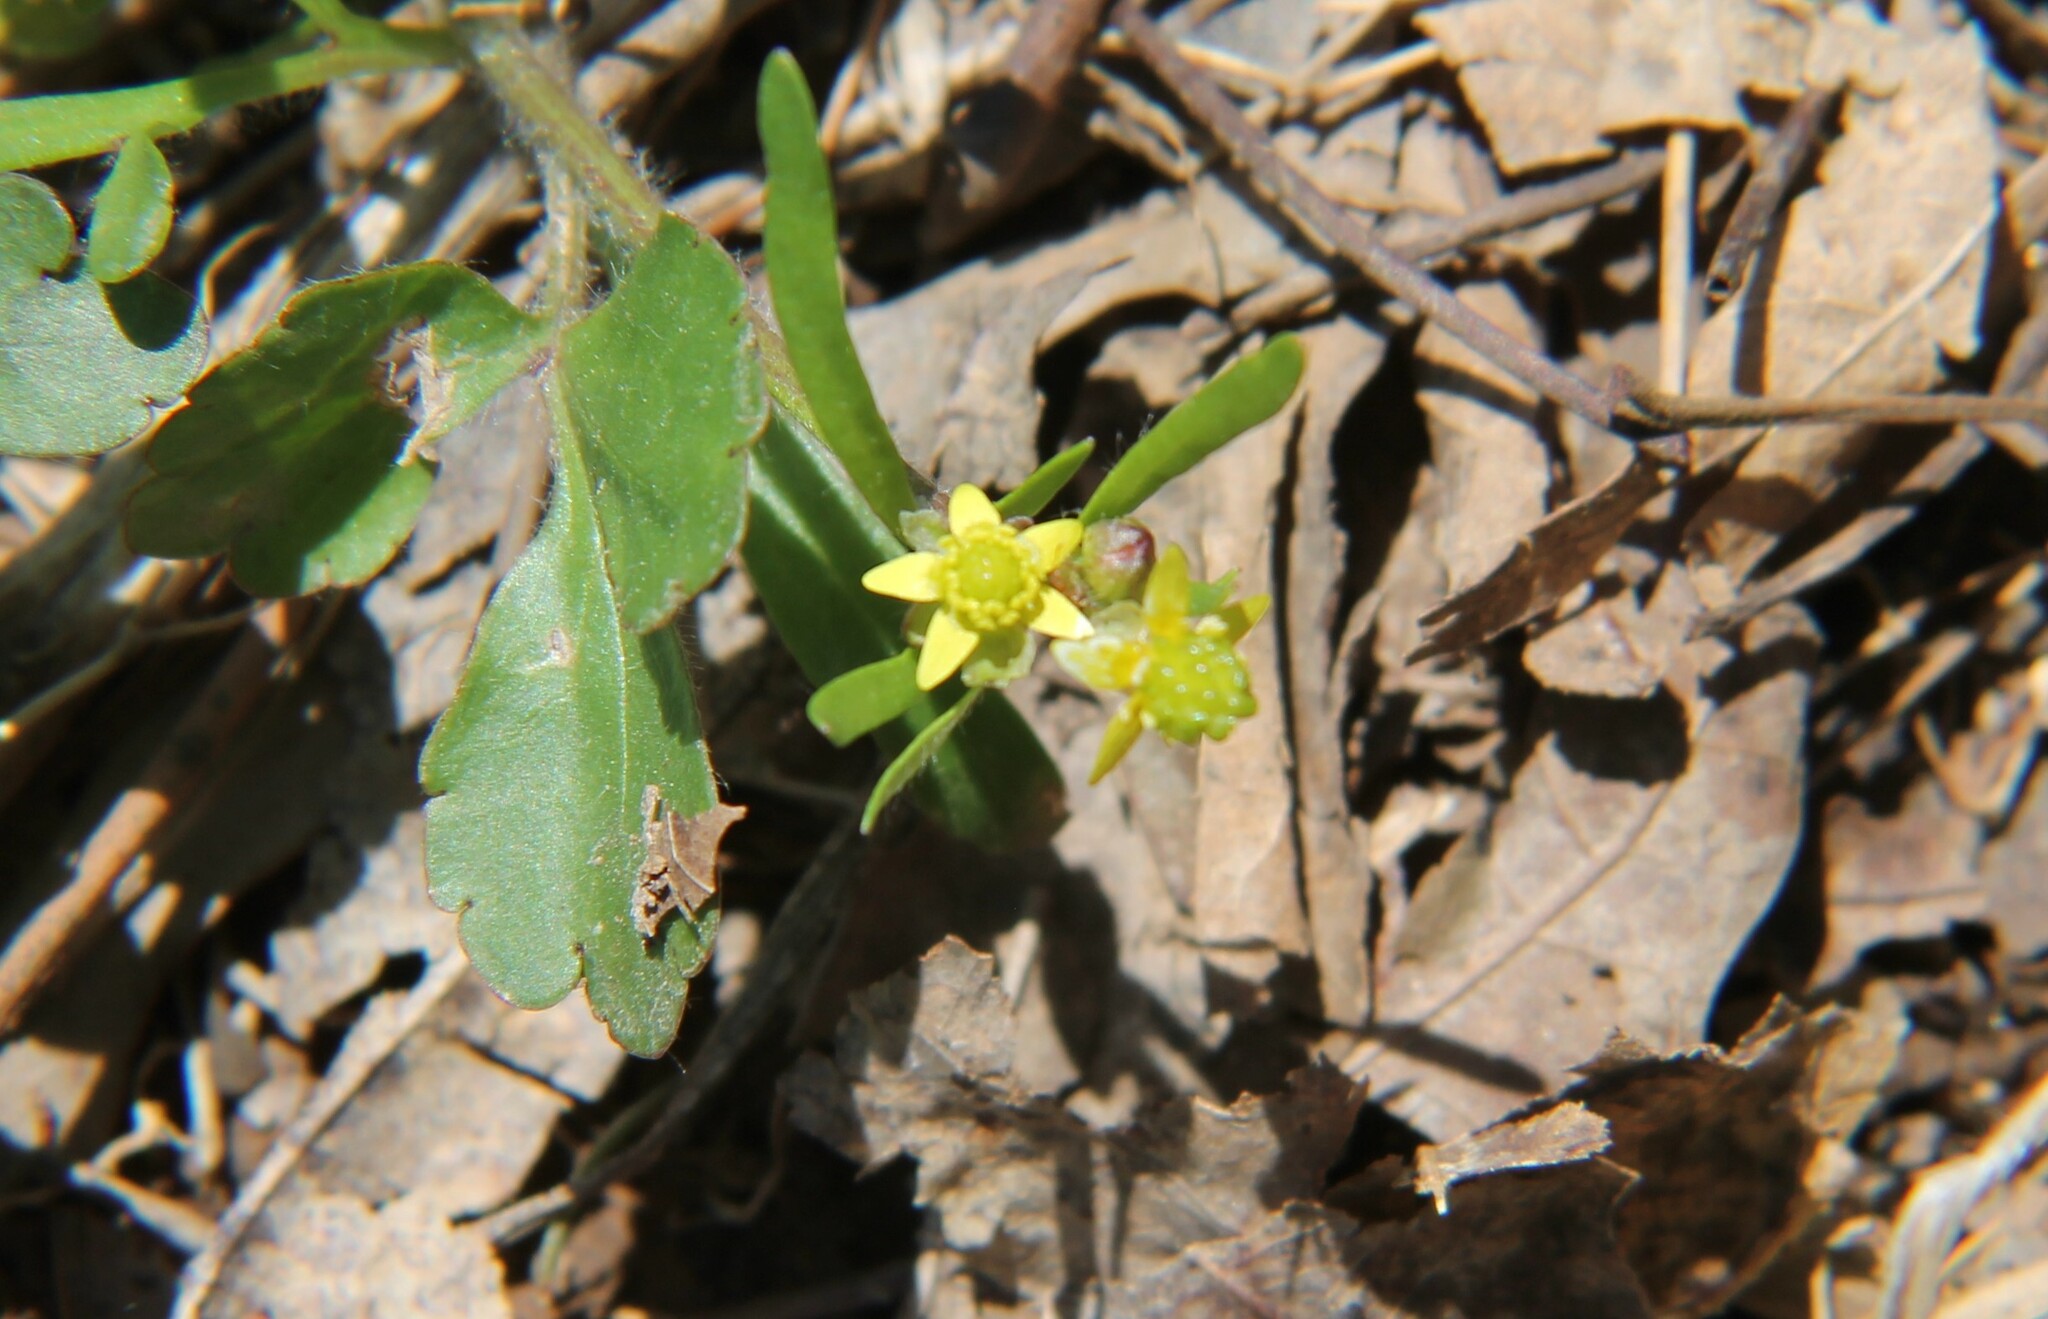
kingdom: Plantae
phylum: Tracheophyta
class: Magnoliopsida
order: Ranunculales
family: Ranunculaceae
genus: Ranunculus
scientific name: Ranunculus micranthus
